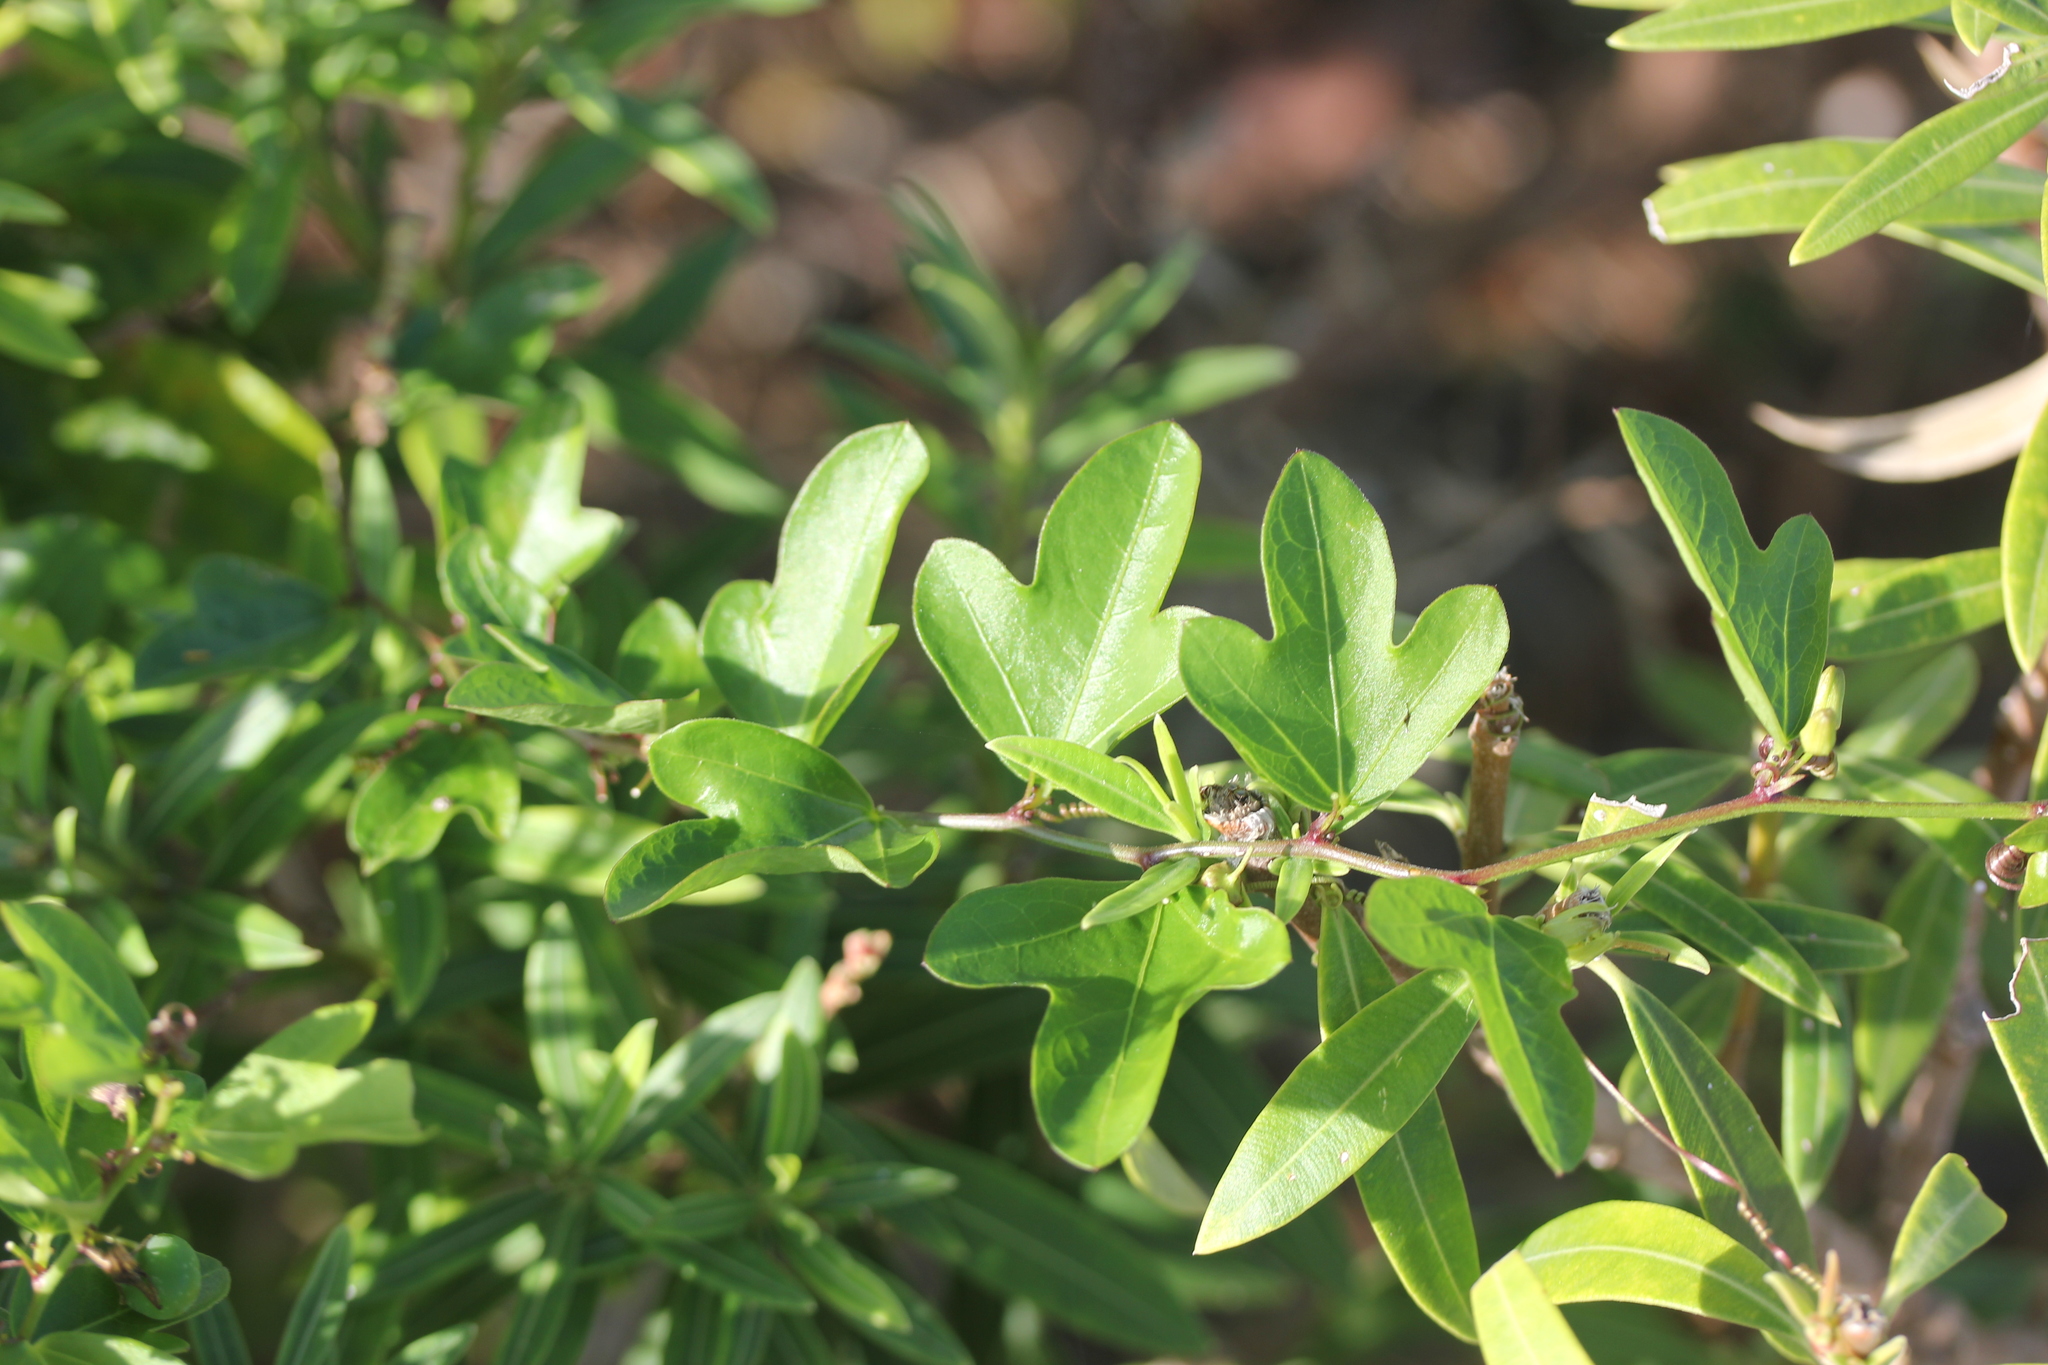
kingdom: Plantae
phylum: Tracheophyta
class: Magnoliopsida
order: Malpighiales
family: Passifloraceae
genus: Passiflora
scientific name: Passiflora pallida
